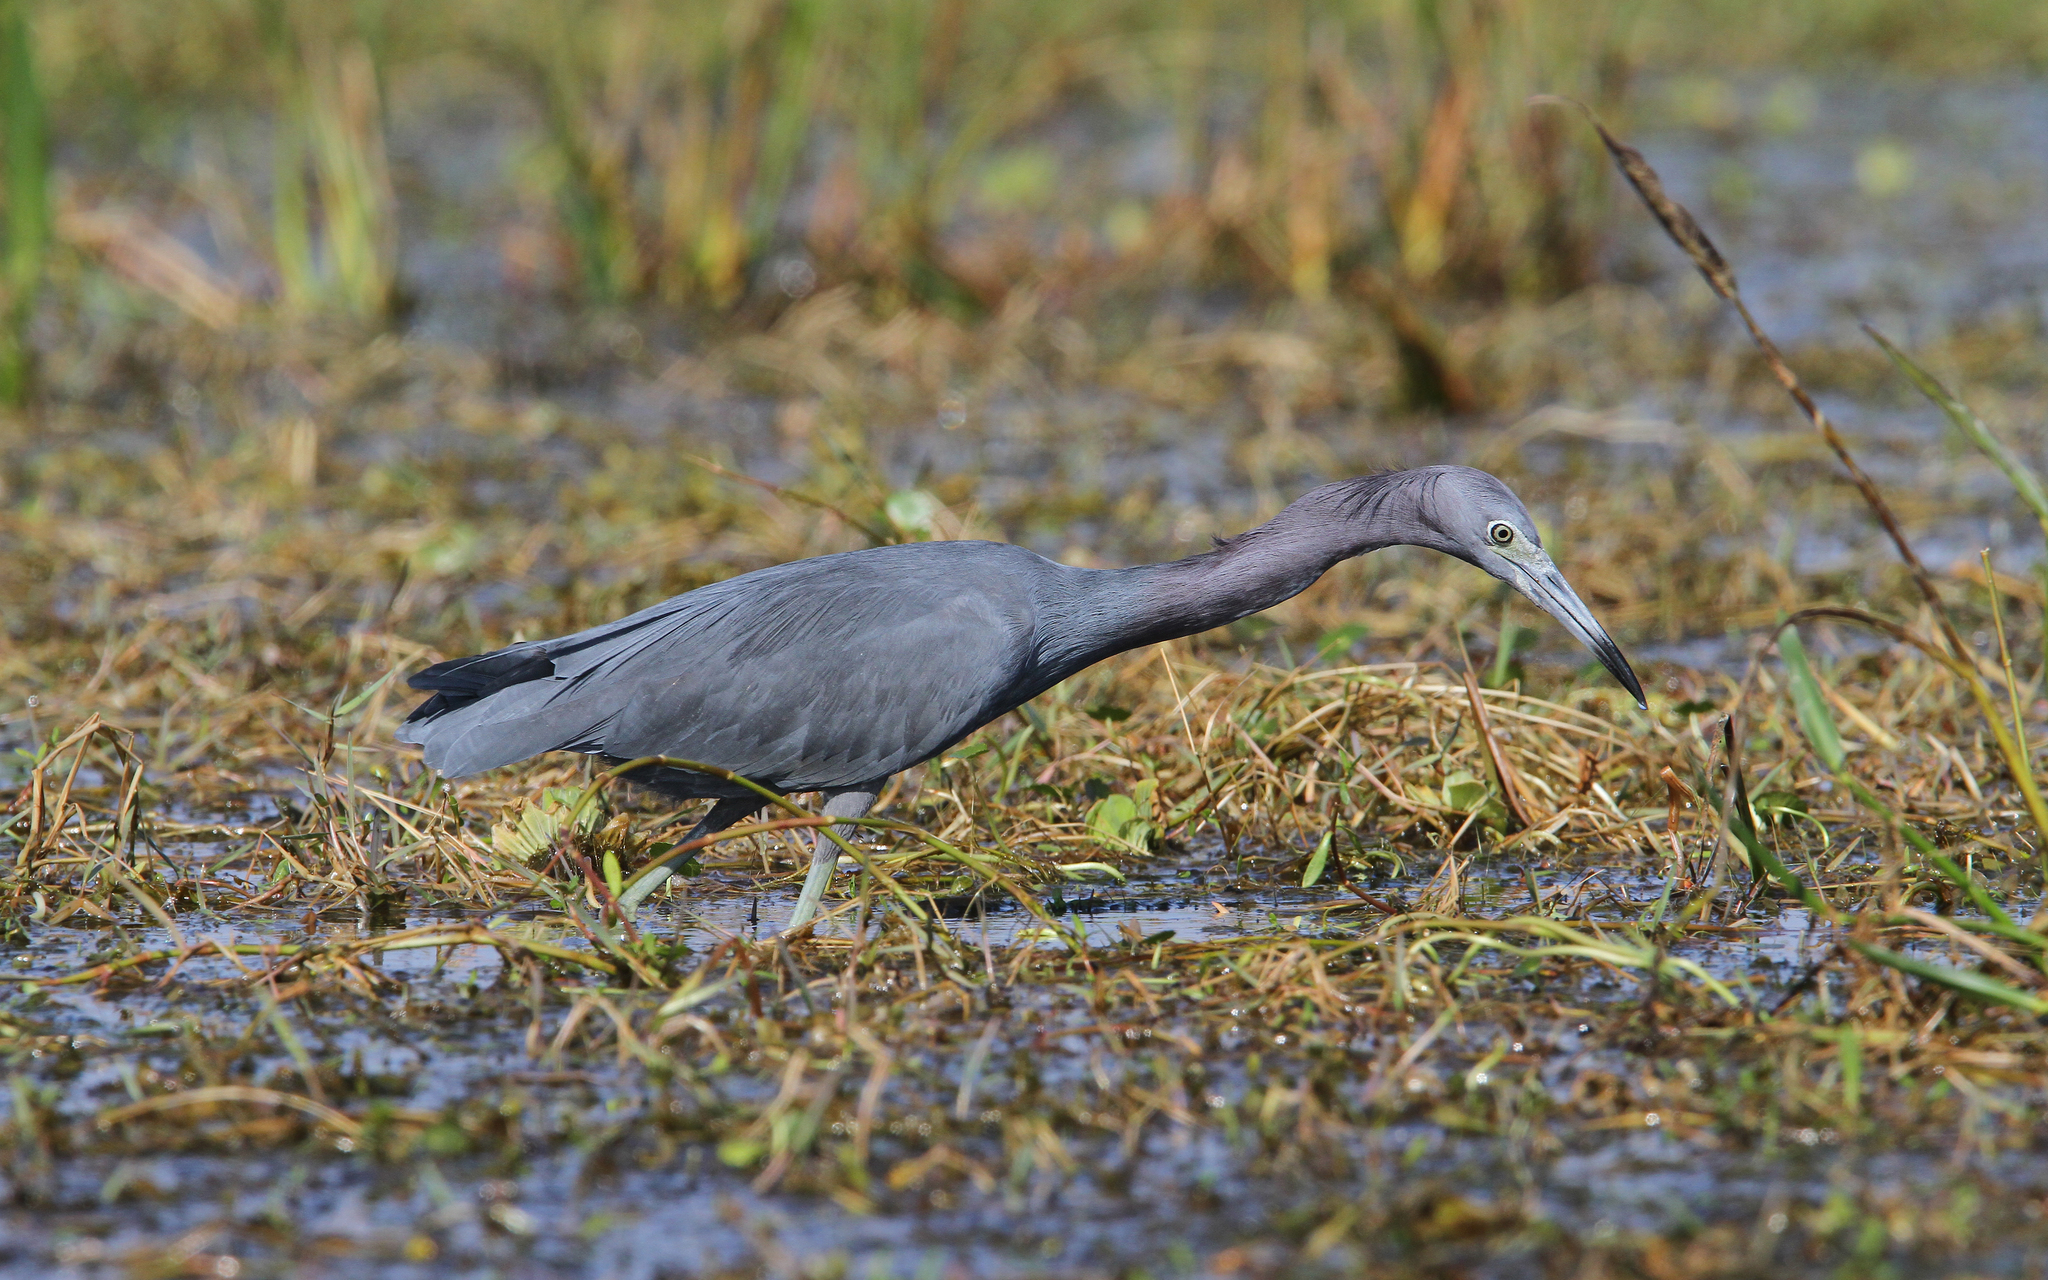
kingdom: Animalia
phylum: Chordata
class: Aves
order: Pelecaniformes
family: Ardeidae
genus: Egretta
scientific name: Egretta caerulea
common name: Little blue heron
